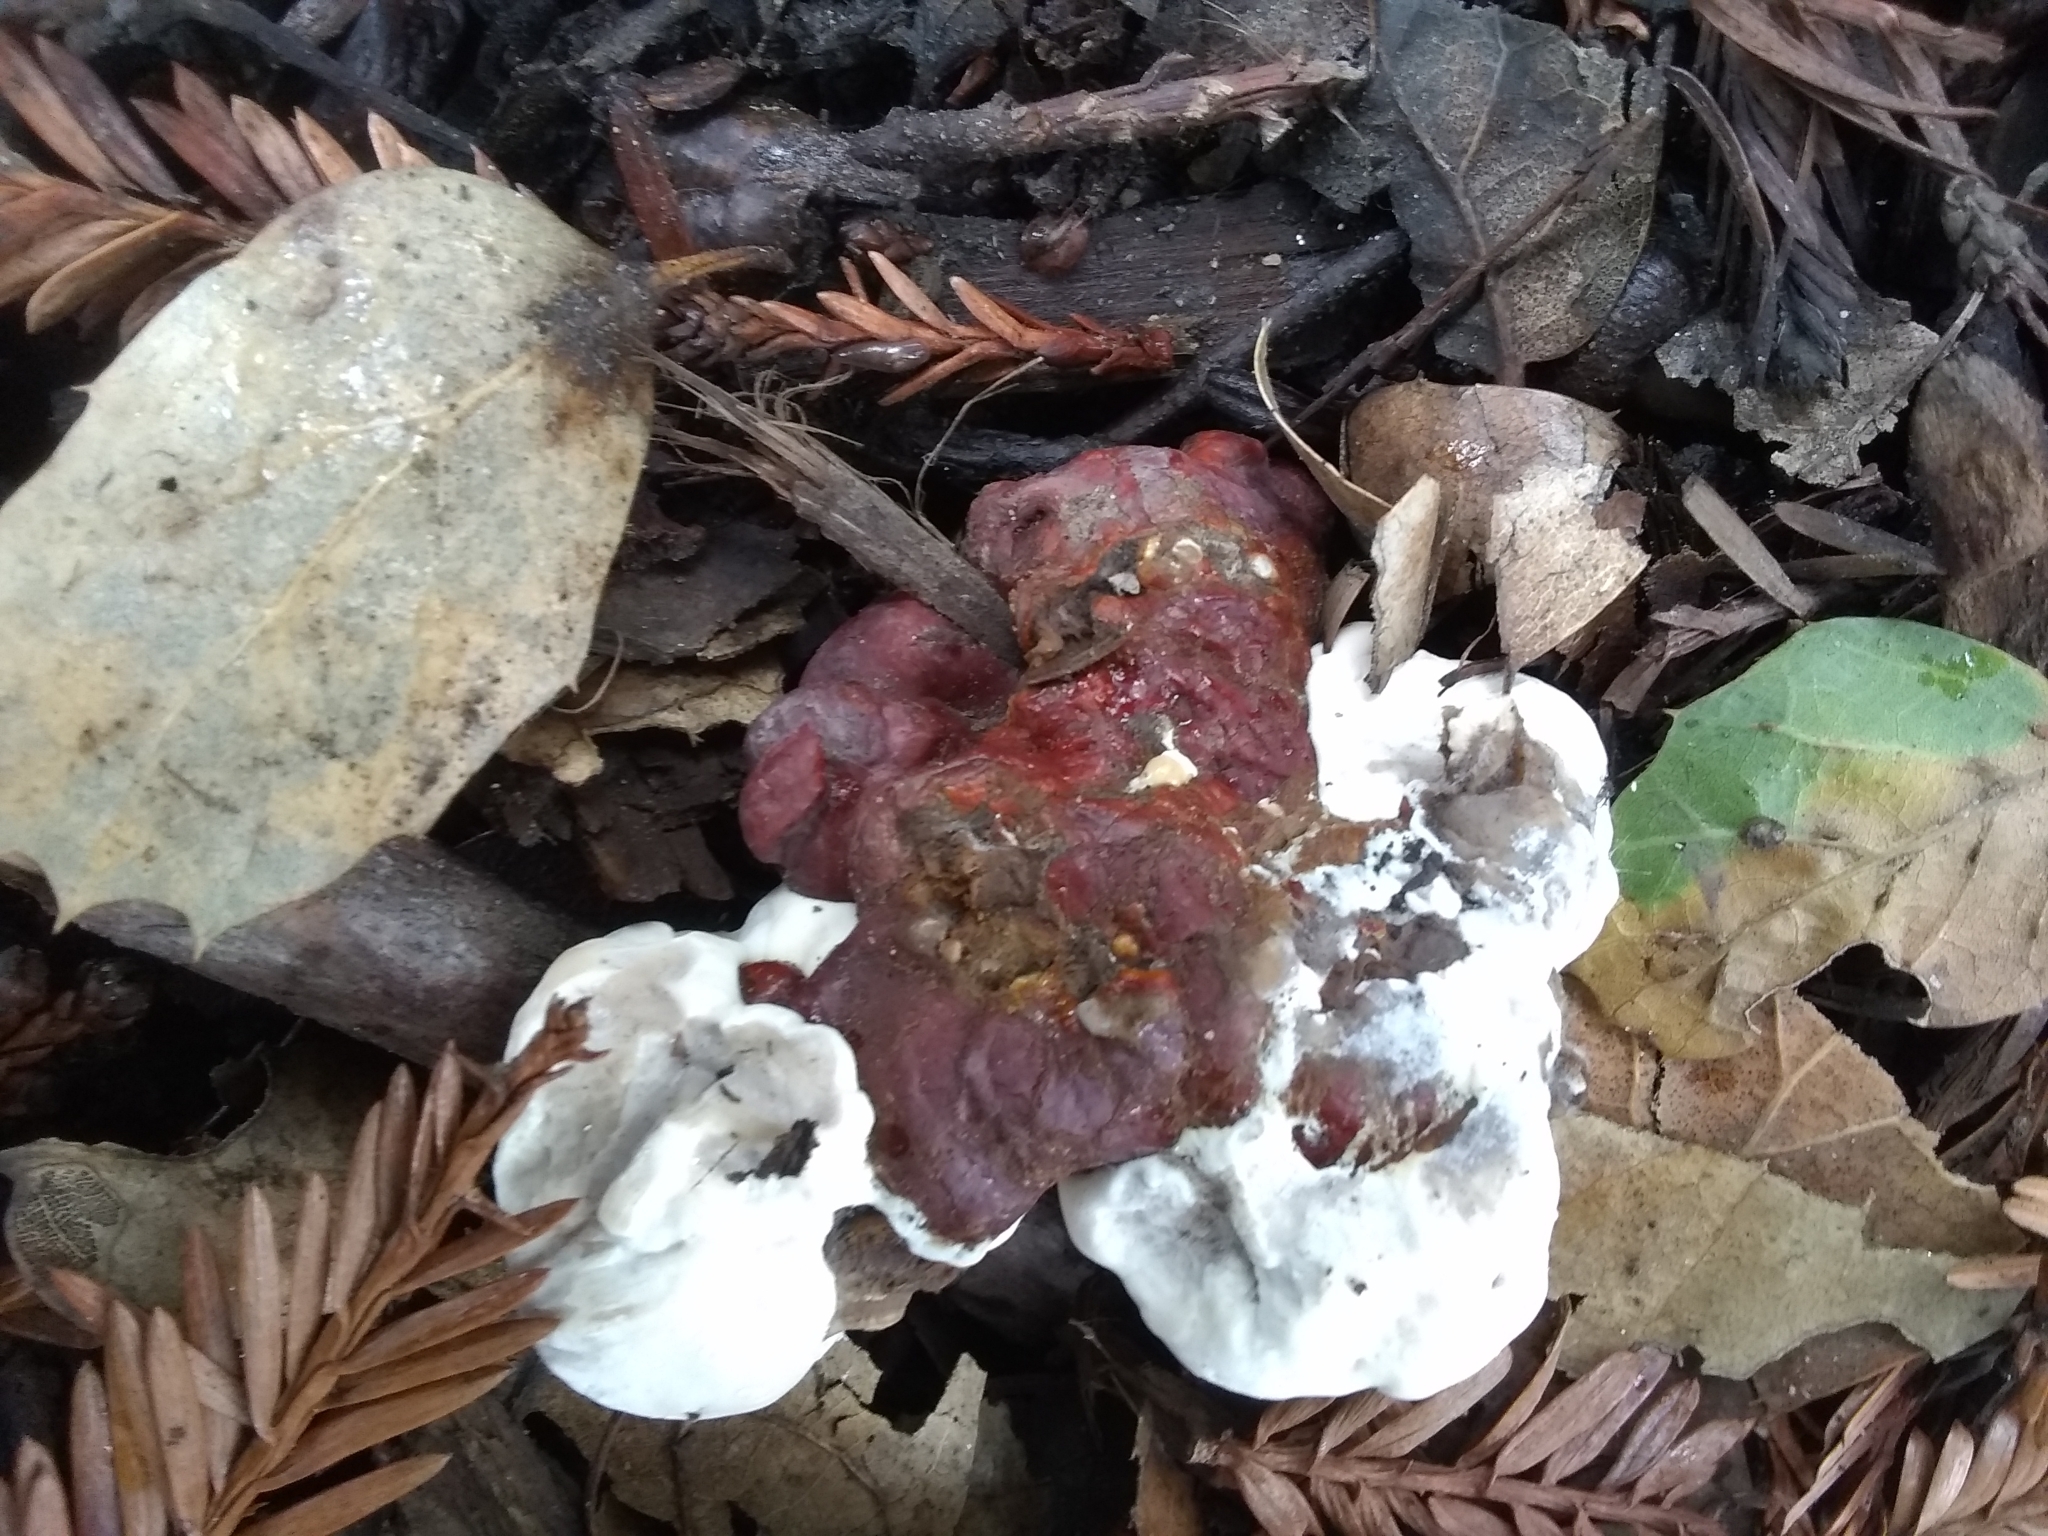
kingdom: Fungi
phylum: Basidiomycota
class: Agaricomycetes
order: Polyporales
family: Polyporaceae
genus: Ganoderma
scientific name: Ganoderma polychromum
